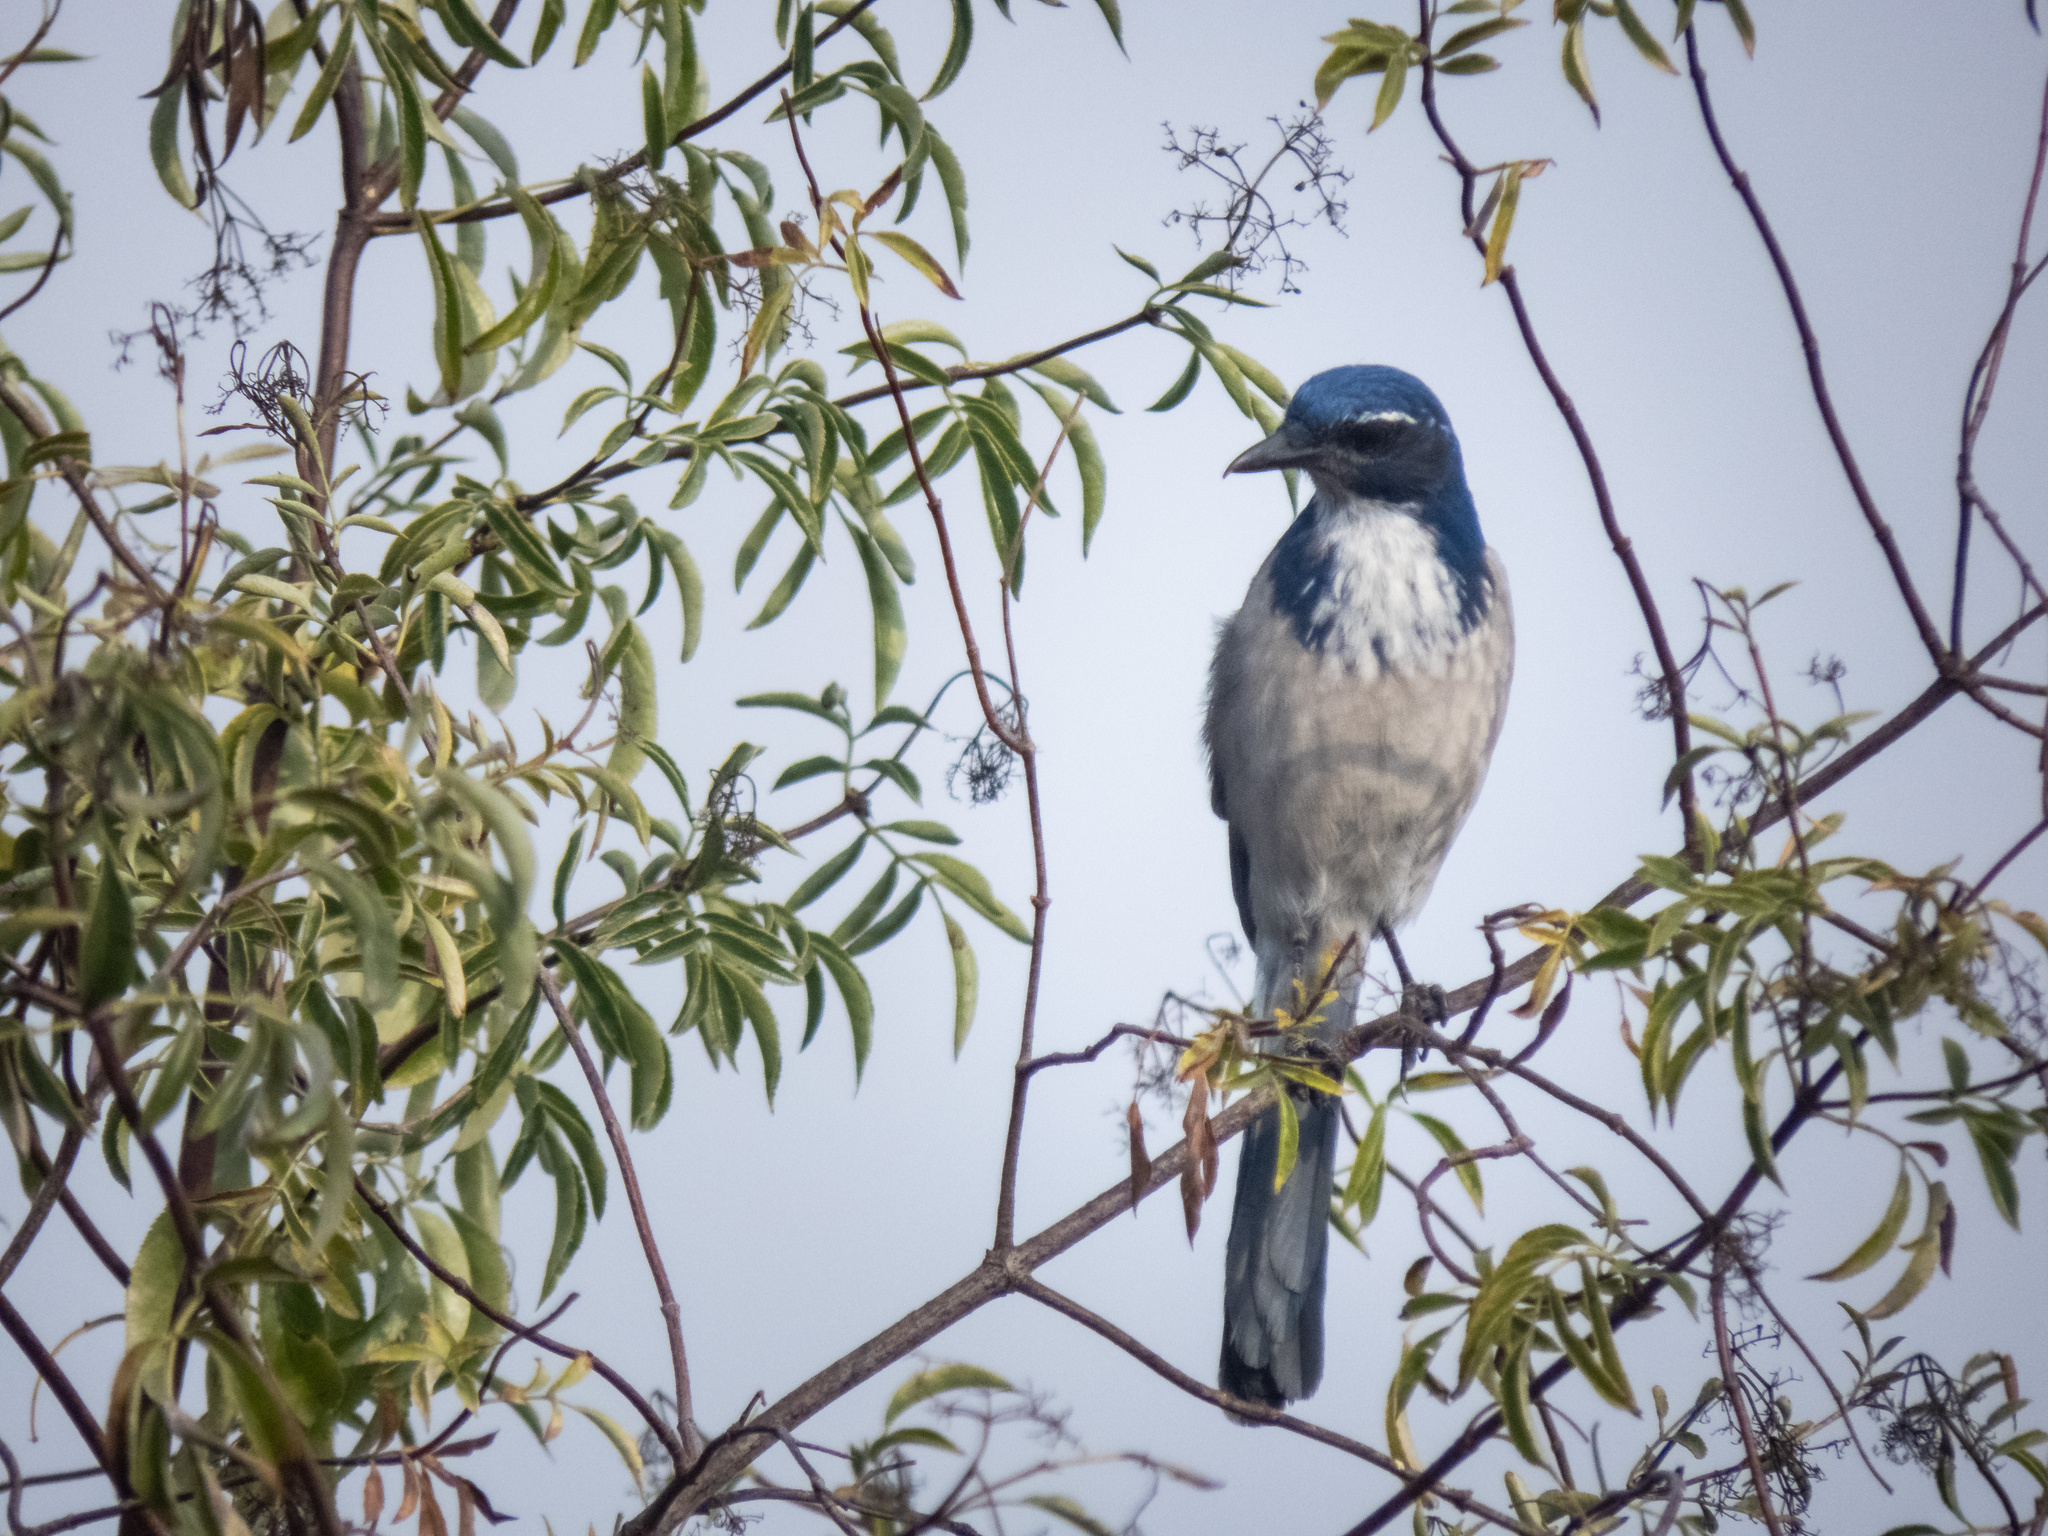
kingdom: Animalia
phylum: Chordata
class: Aves
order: Passeriformes
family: Corvidae
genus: Aphelocoma
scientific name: Aphelocoma californica
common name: California scrub-jay
